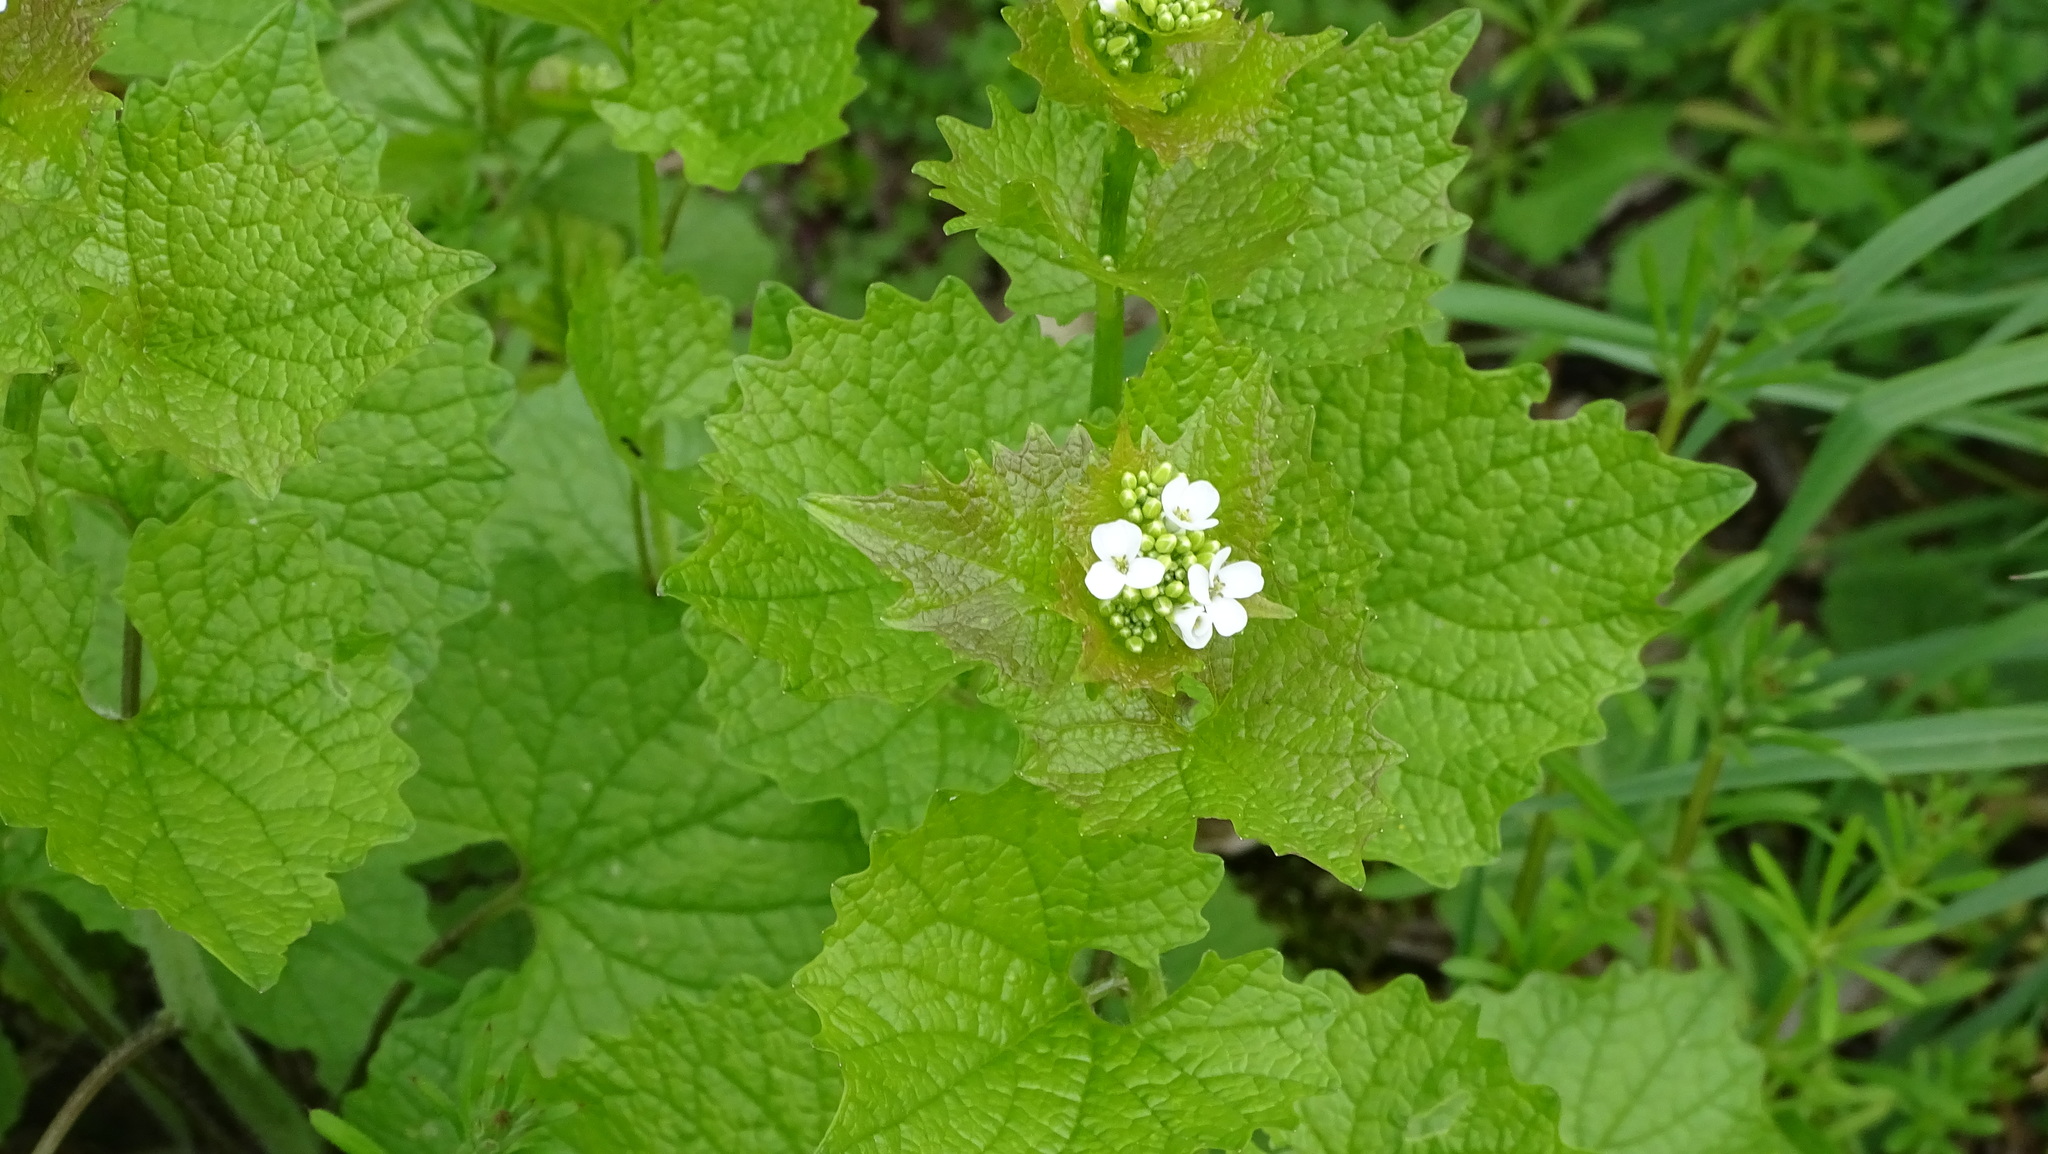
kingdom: Plantae
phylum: Tracheophyta
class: Magnoliopsida
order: Brassicales
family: Brassicaceae
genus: Alliaria
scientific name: Alliaria petiolata
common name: Garlic mustard
